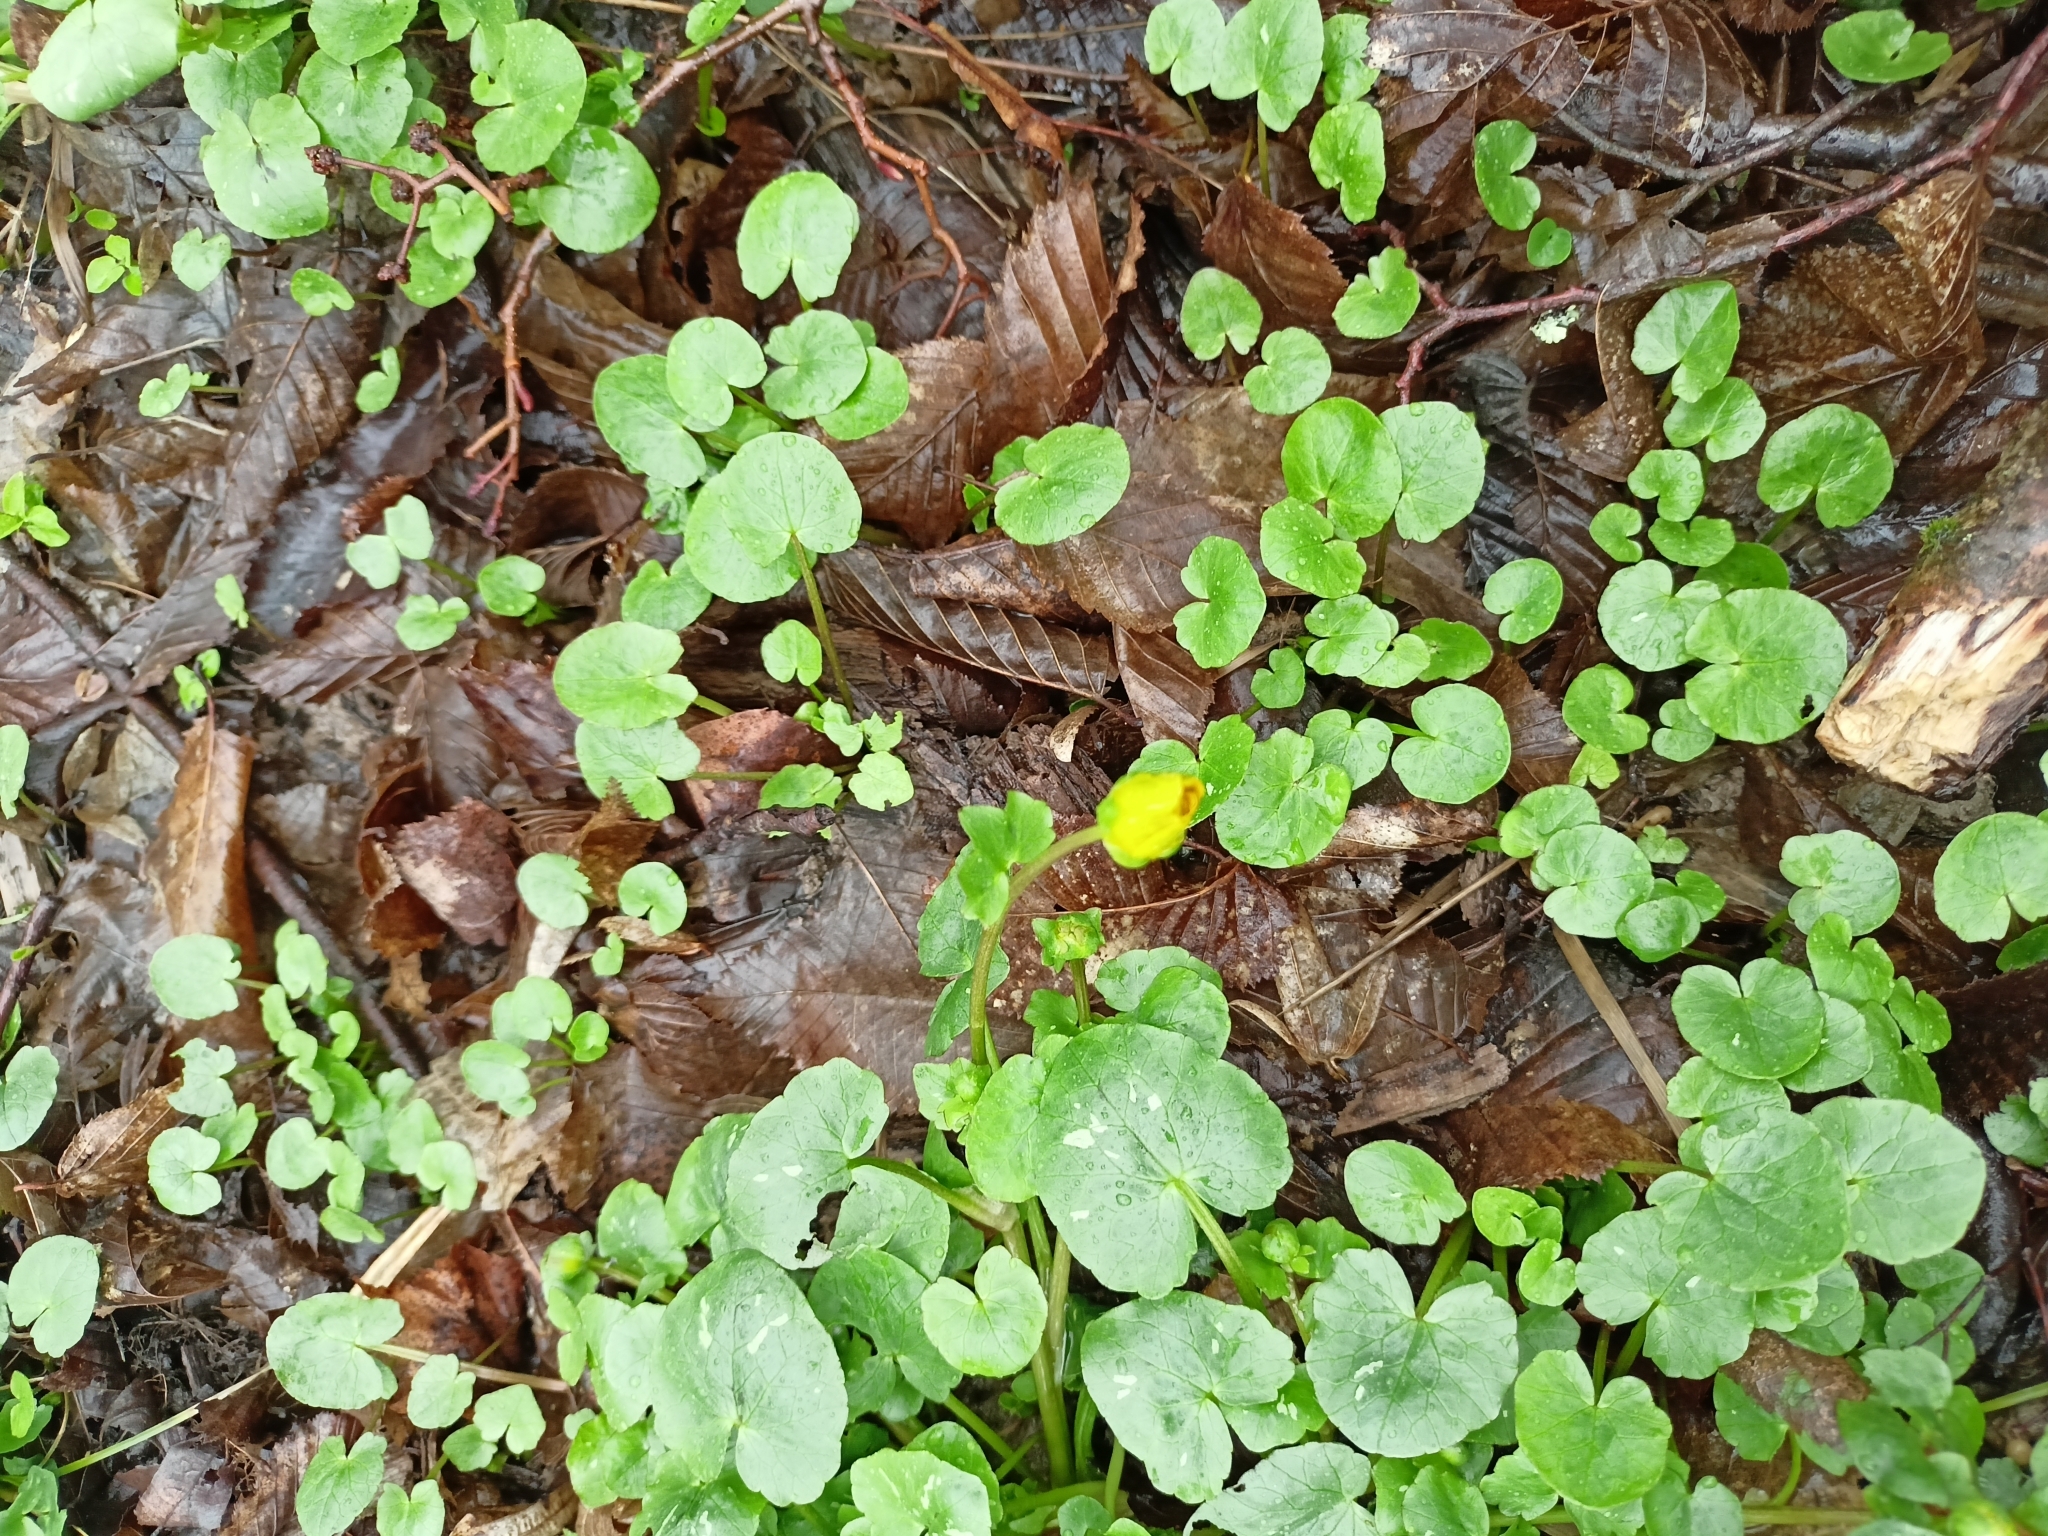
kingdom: Plantae
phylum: Tracheophyta
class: Magnoliopsida
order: Ranunculales
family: Ranunculaceae
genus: Ficaria
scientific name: Ficaria verna
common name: Lesser celandine
